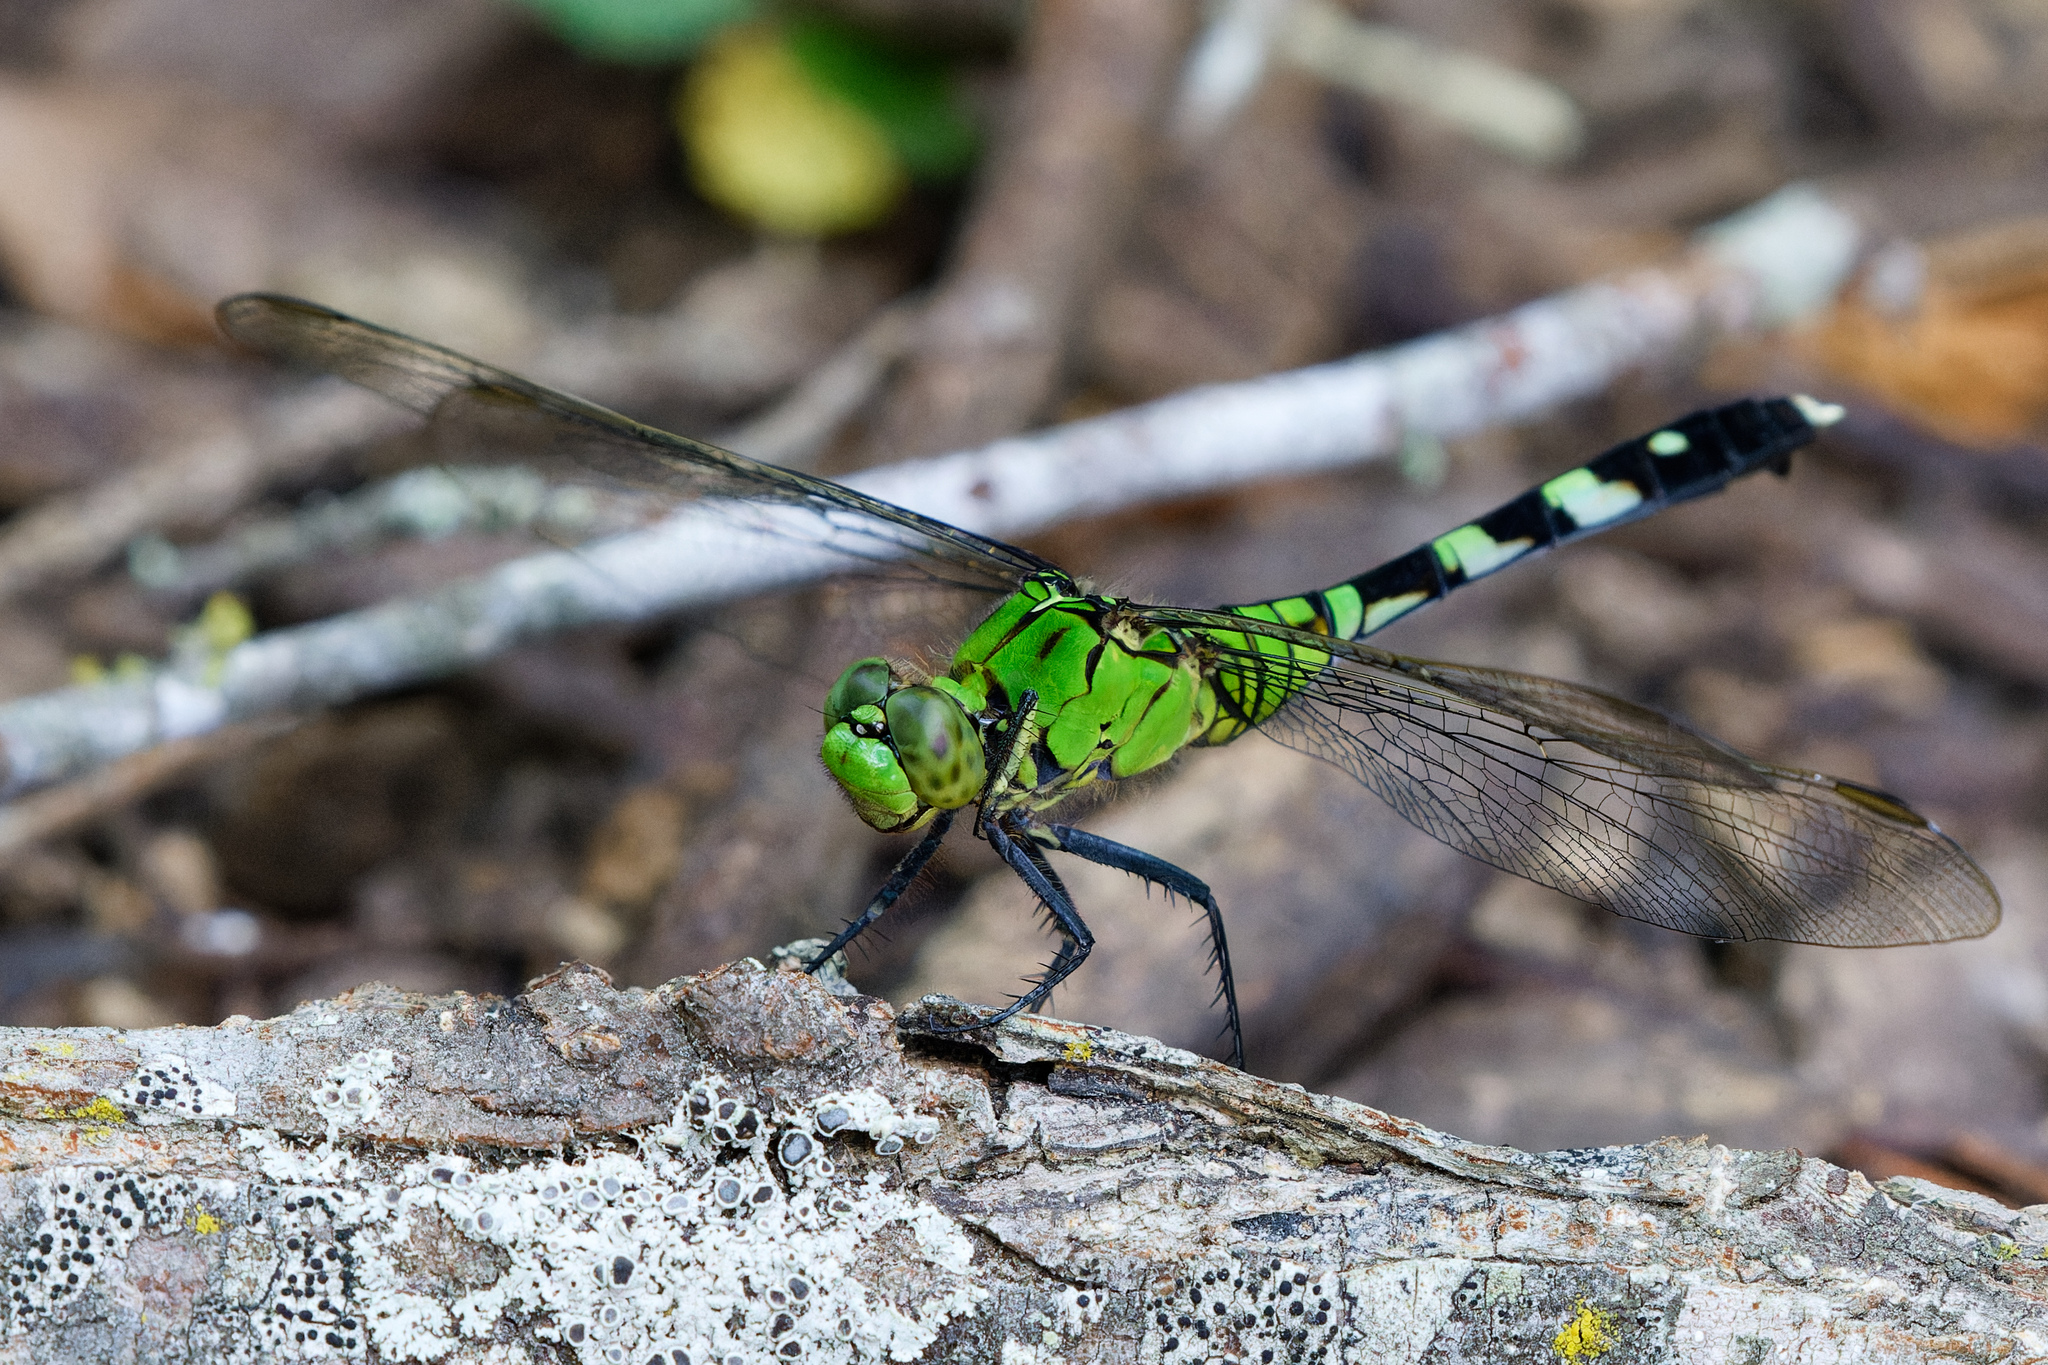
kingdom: Animalia
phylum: Arthropoda
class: Insecta
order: Odonata
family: Libellulidae
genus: Erythemis
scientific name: Erythemis simplicicollis
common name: Eastern pondhawk
